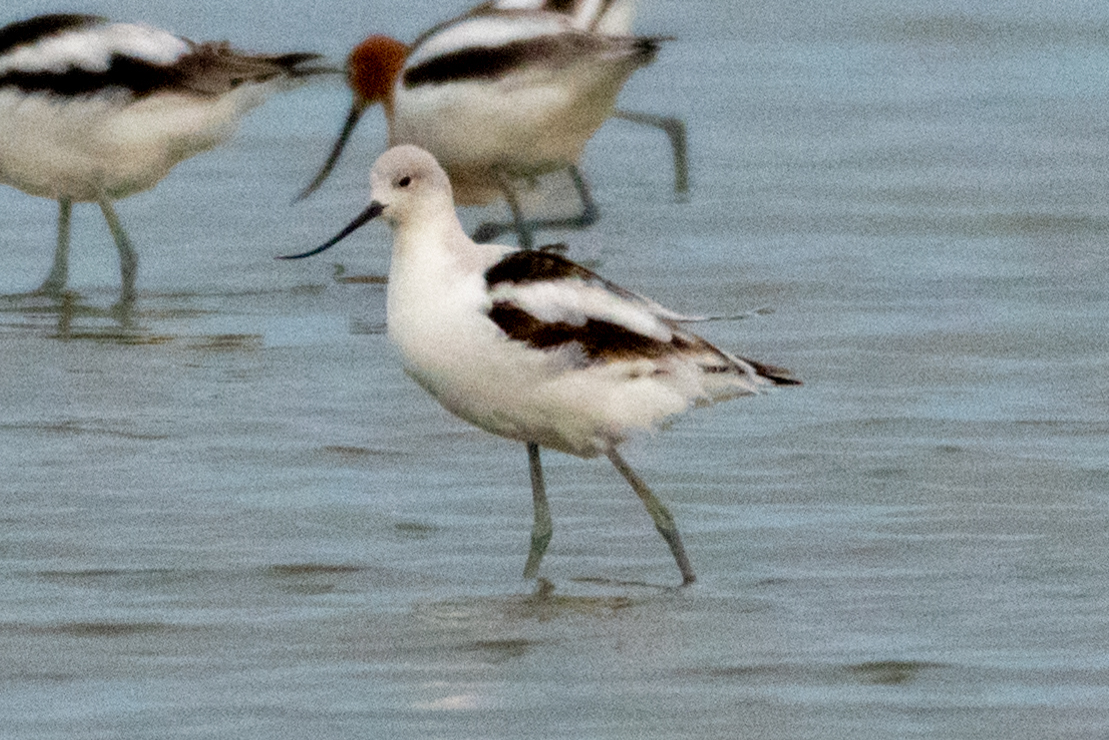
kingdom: Animalia
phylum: Chordata
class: Aves
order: Charadriiformes
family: Recurvirostridae
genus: Recurvirostra
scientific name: Recurvirostra americana
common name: American avocet
